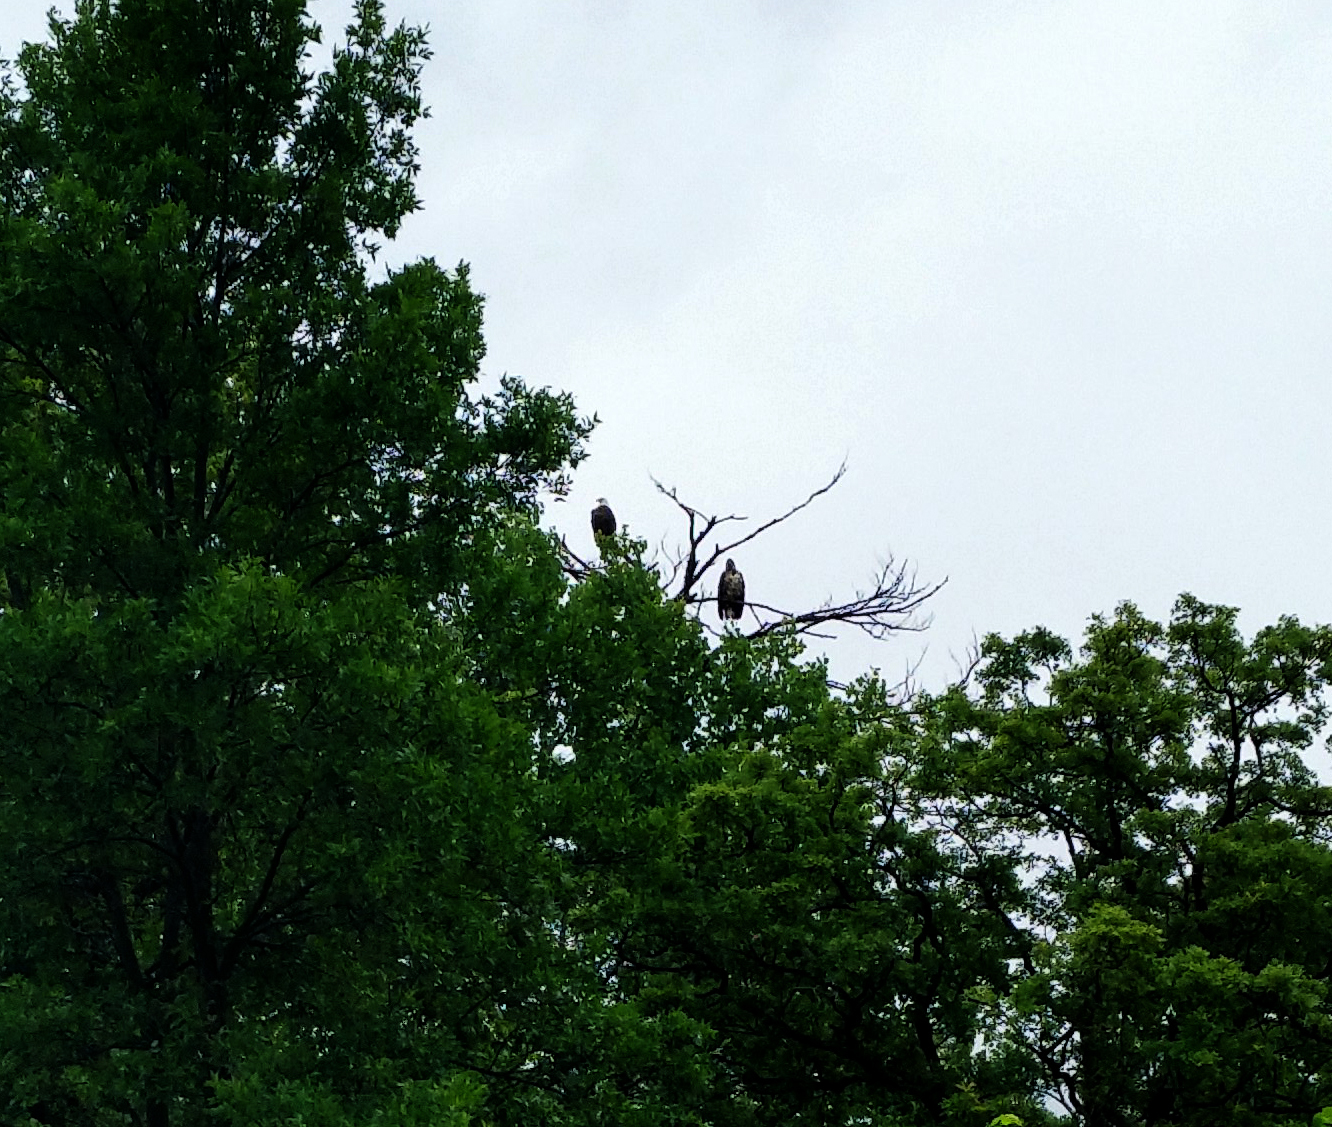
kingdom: Animalia
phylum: Chordata
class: Aves
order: Accipitriformes
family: Accipitridae
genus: Haliaeetus
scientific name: Haliaeetus leucocephalus
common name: Bald eagle
